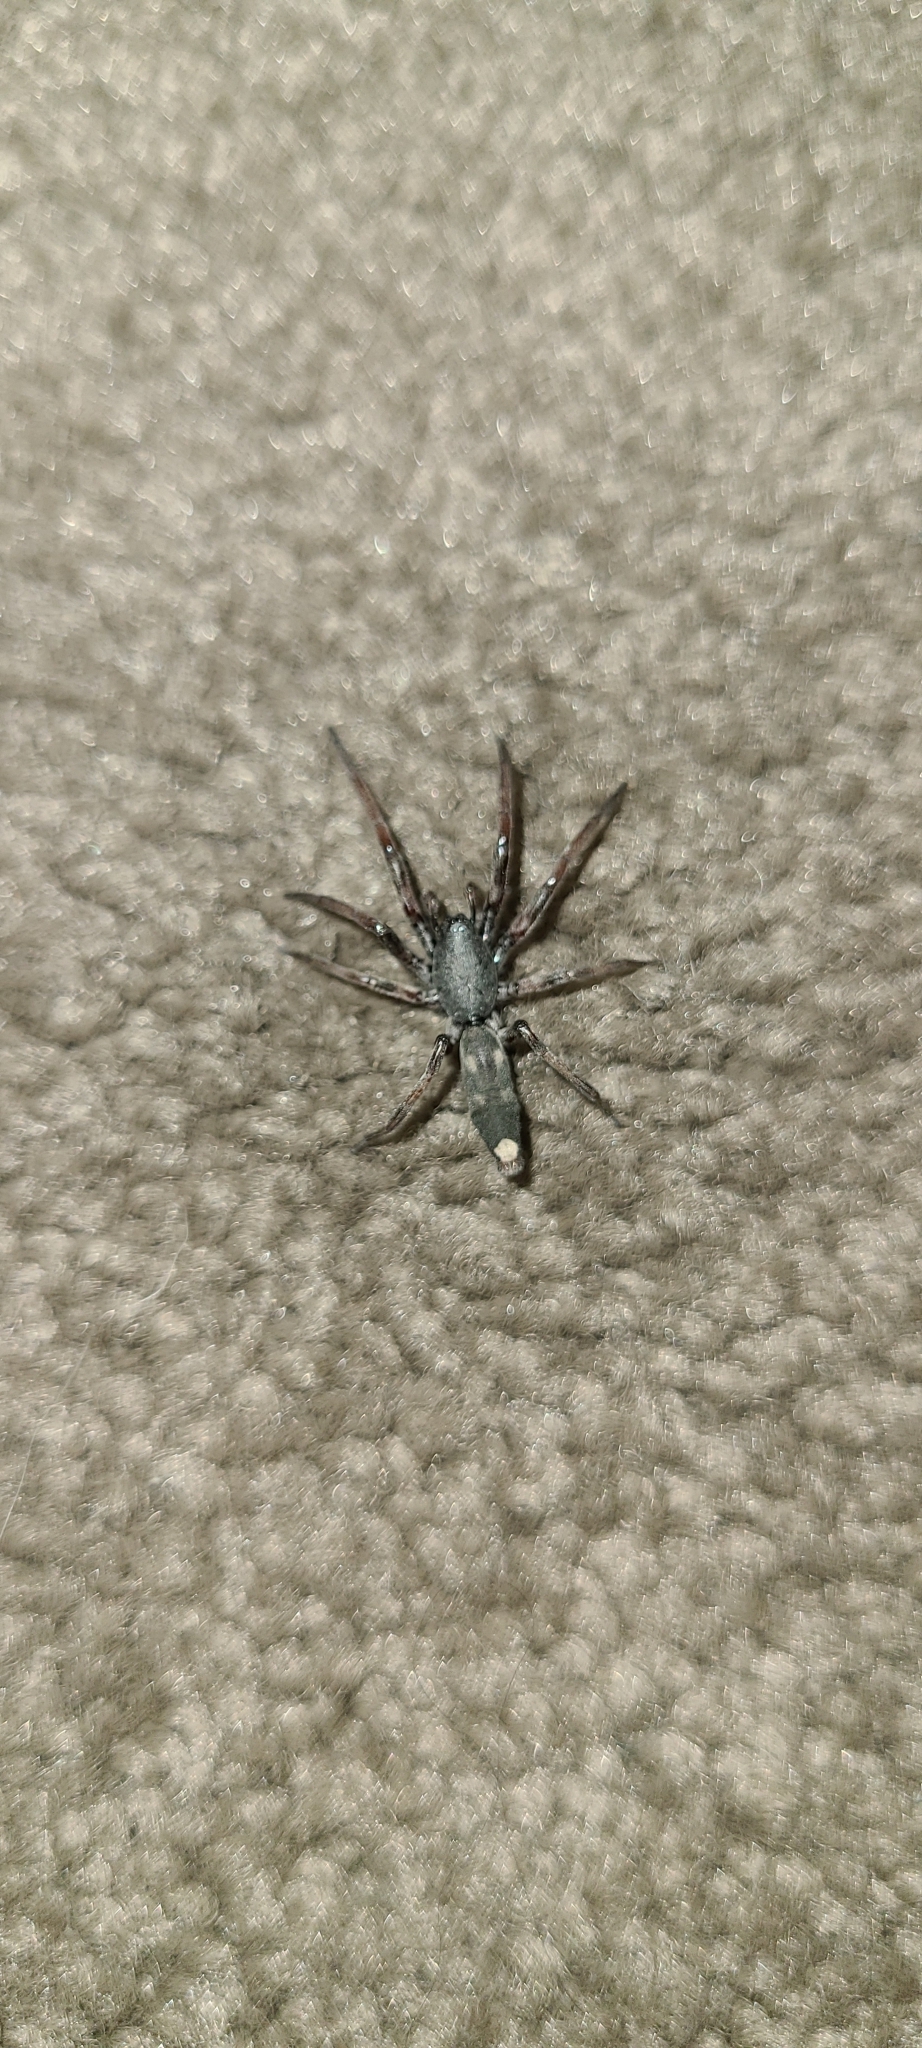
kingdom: Animalia
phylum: Arthropoda
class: Arachnida
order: Araneae
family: Lamponidae
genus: Lampona
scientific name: Lampona cylindrata
